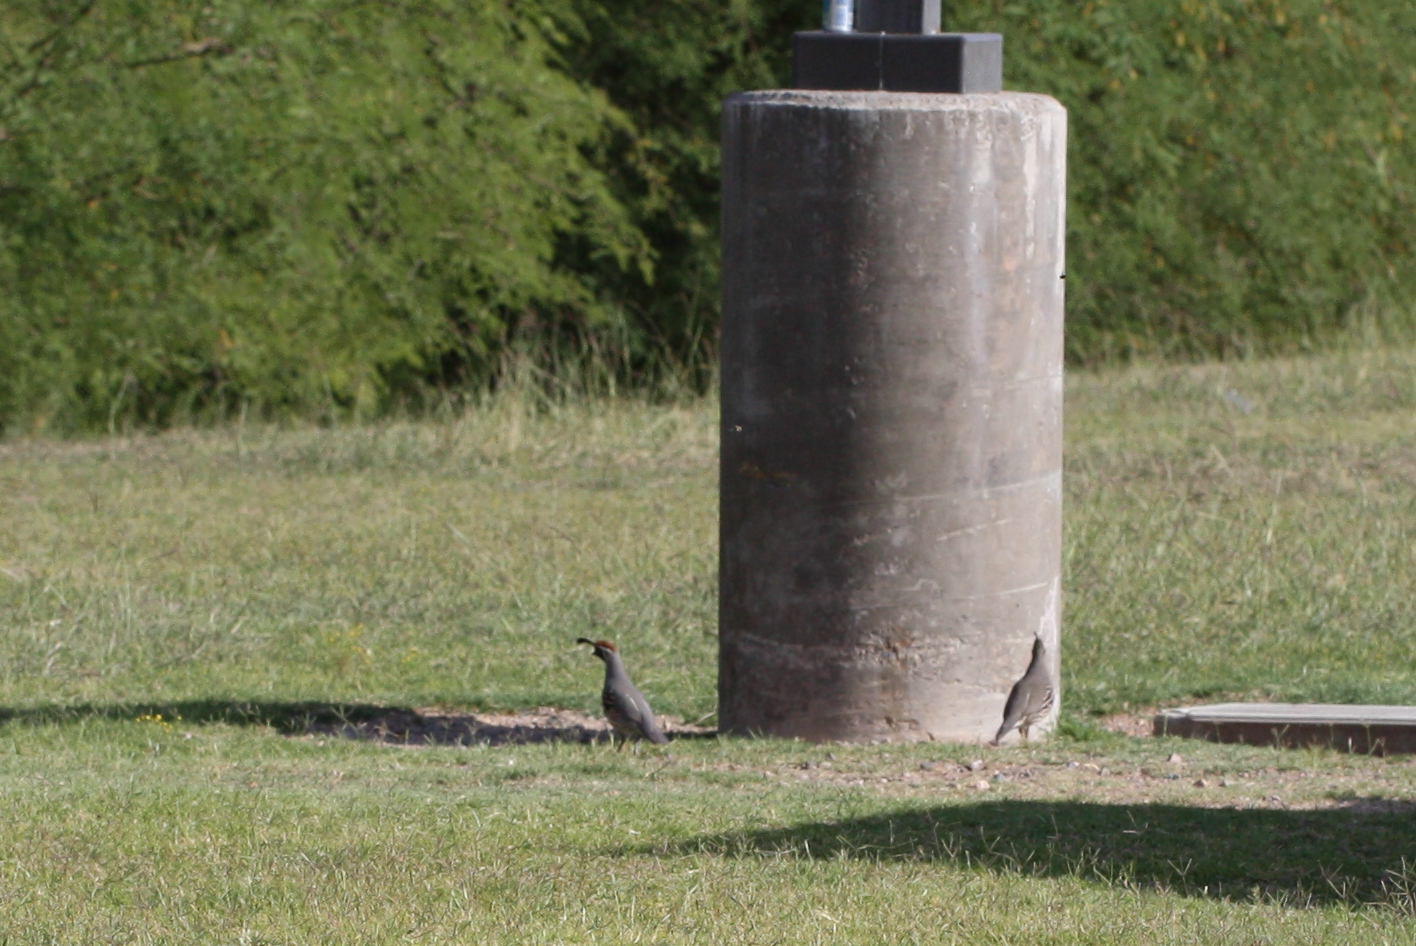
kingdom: Animalia
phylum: Chordata
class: Aves
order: Galliformes
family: Odontophoridae
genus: Callipepla
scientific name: Callipepla gambelii
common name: Gambel's quail
